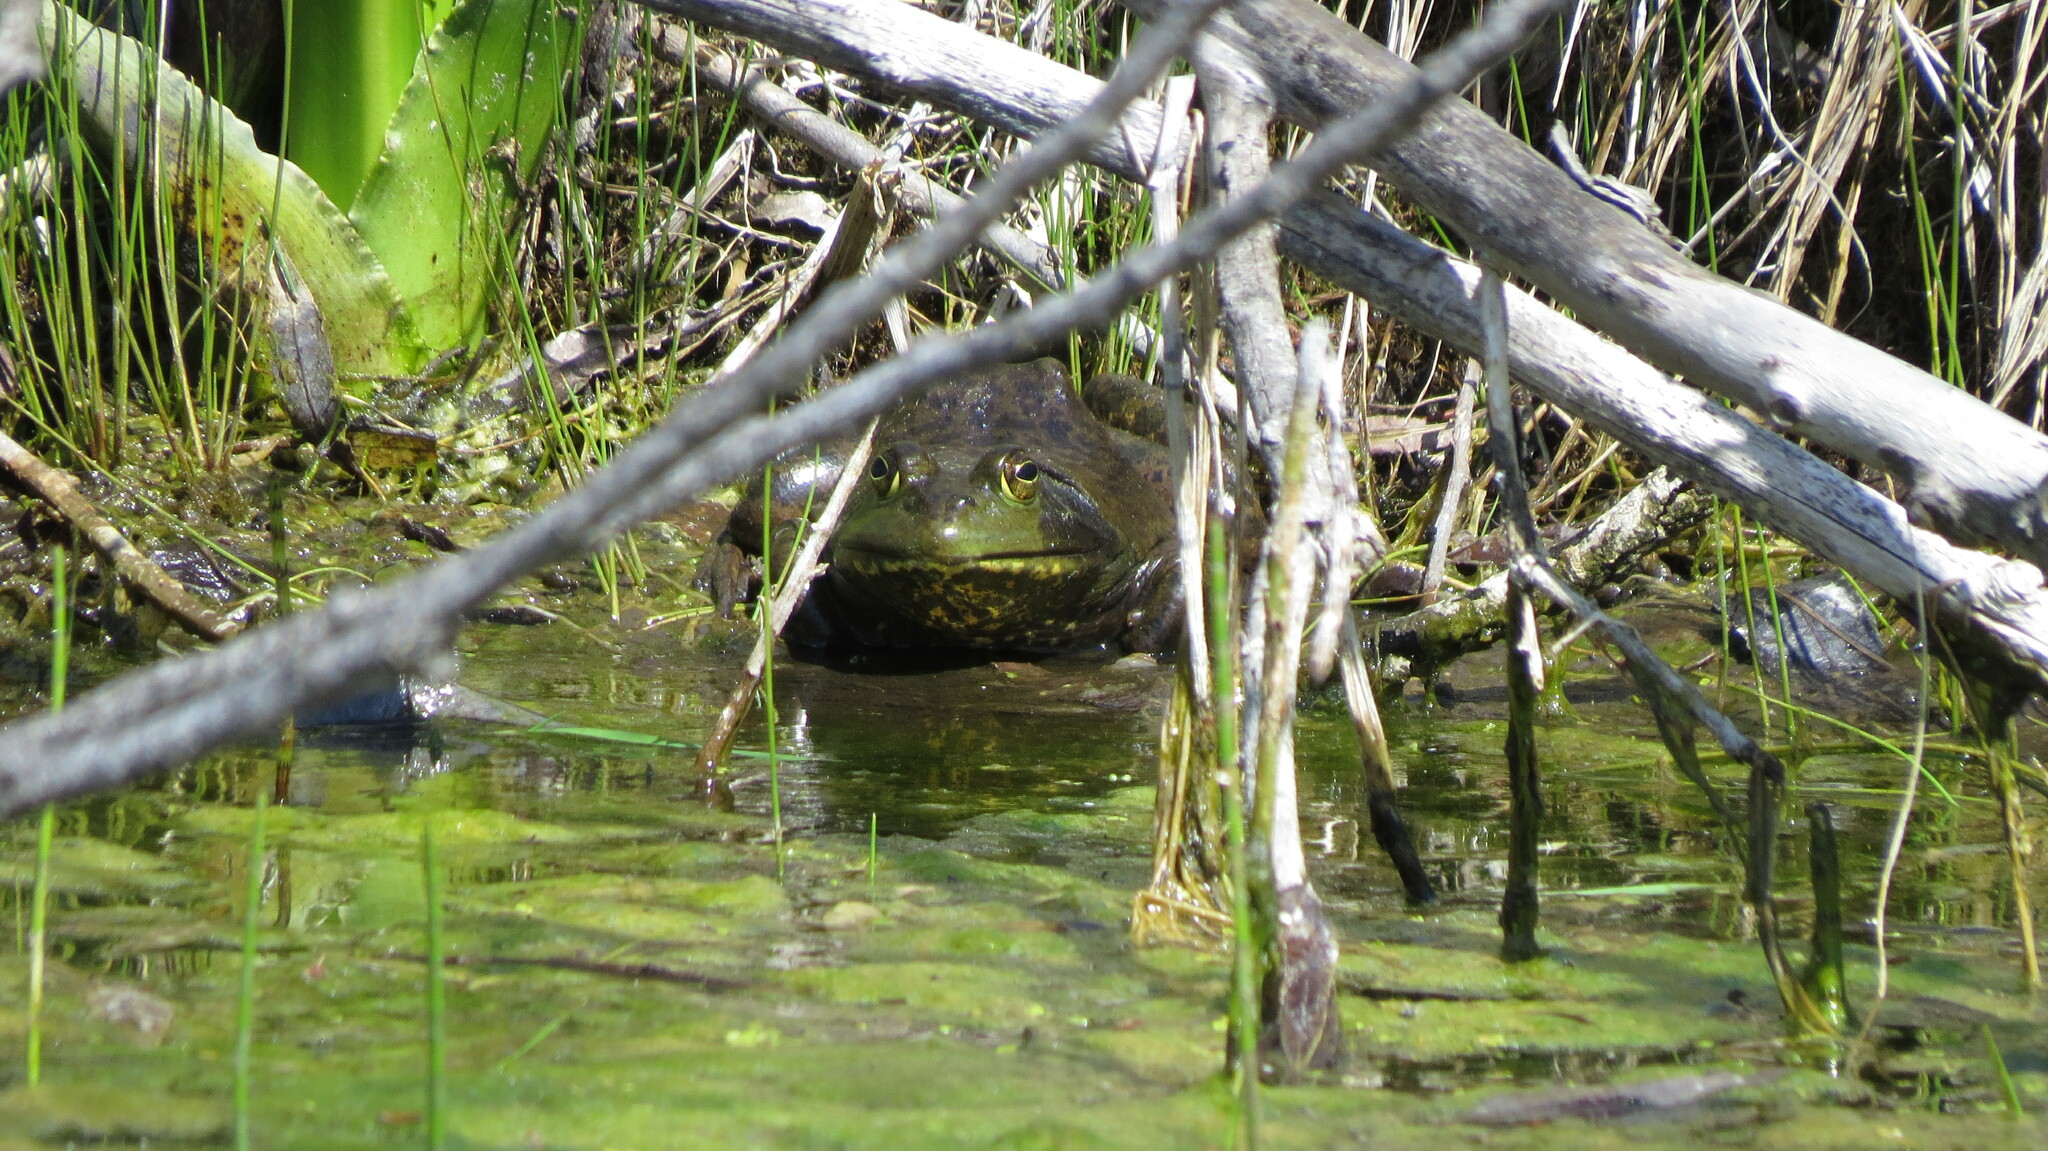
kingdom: Animalia
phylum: Chordata
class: Amphibia
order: Anura
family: Ranidae
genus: Lithobates
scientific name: Lithobates catesbeianus
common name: American bullfrog
